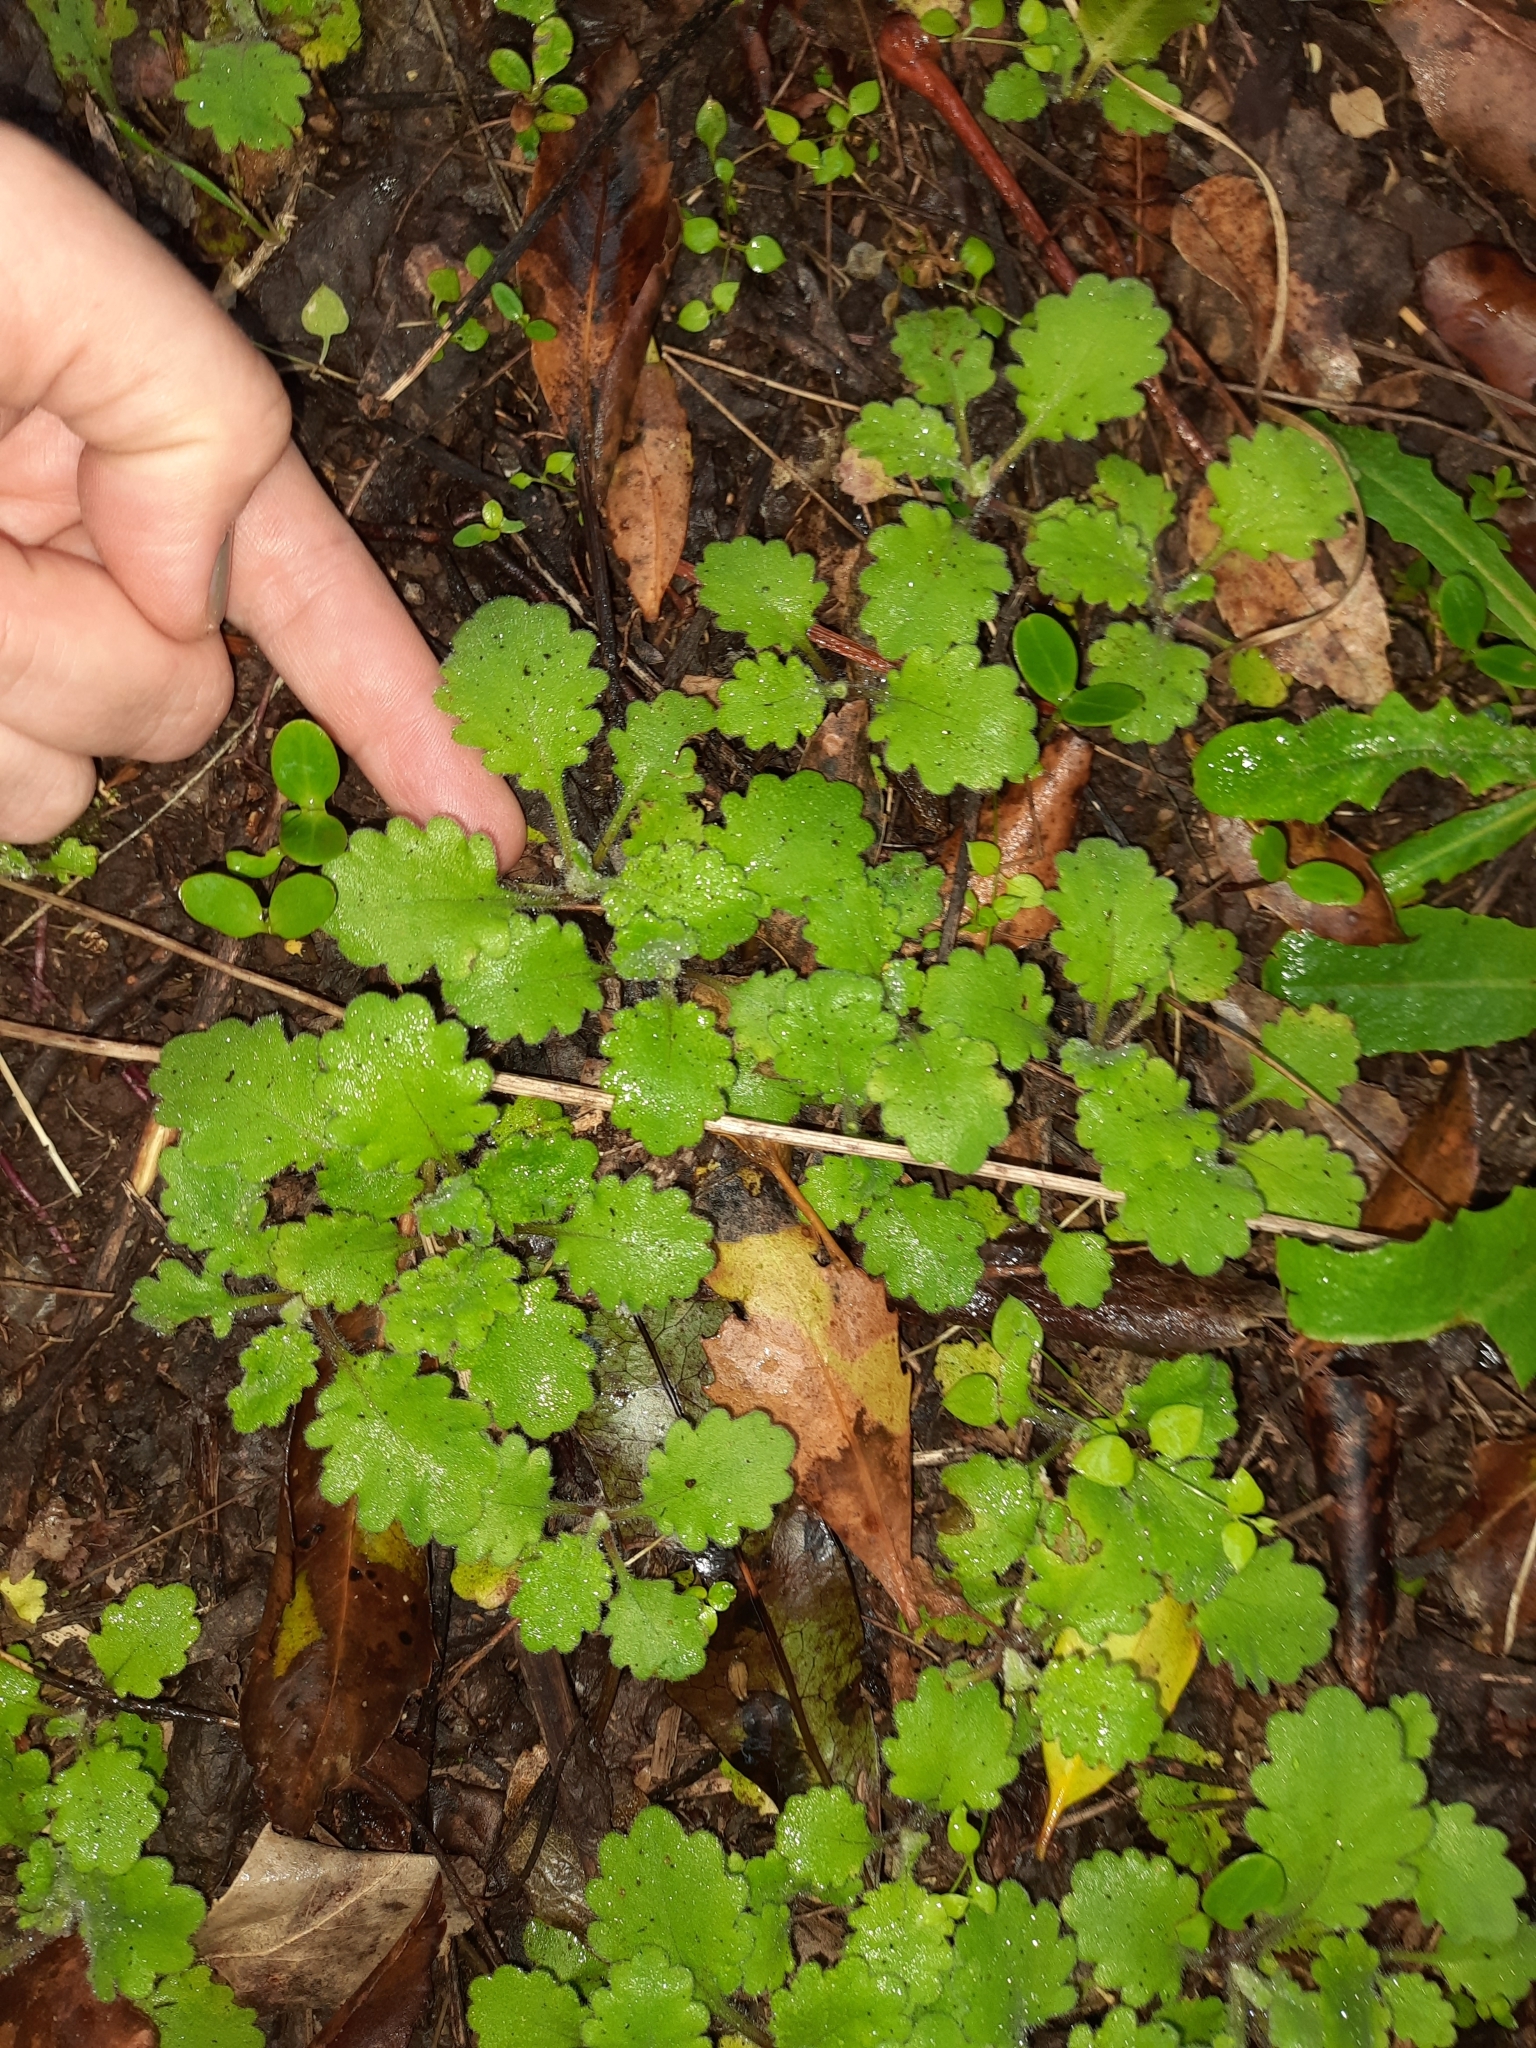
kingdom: Plantae
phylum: Tracheophyta
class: Magnoliopsida
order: Asterales
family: Asteraceae
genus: Lagenophora
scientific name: Lagenophora pinnatifida
